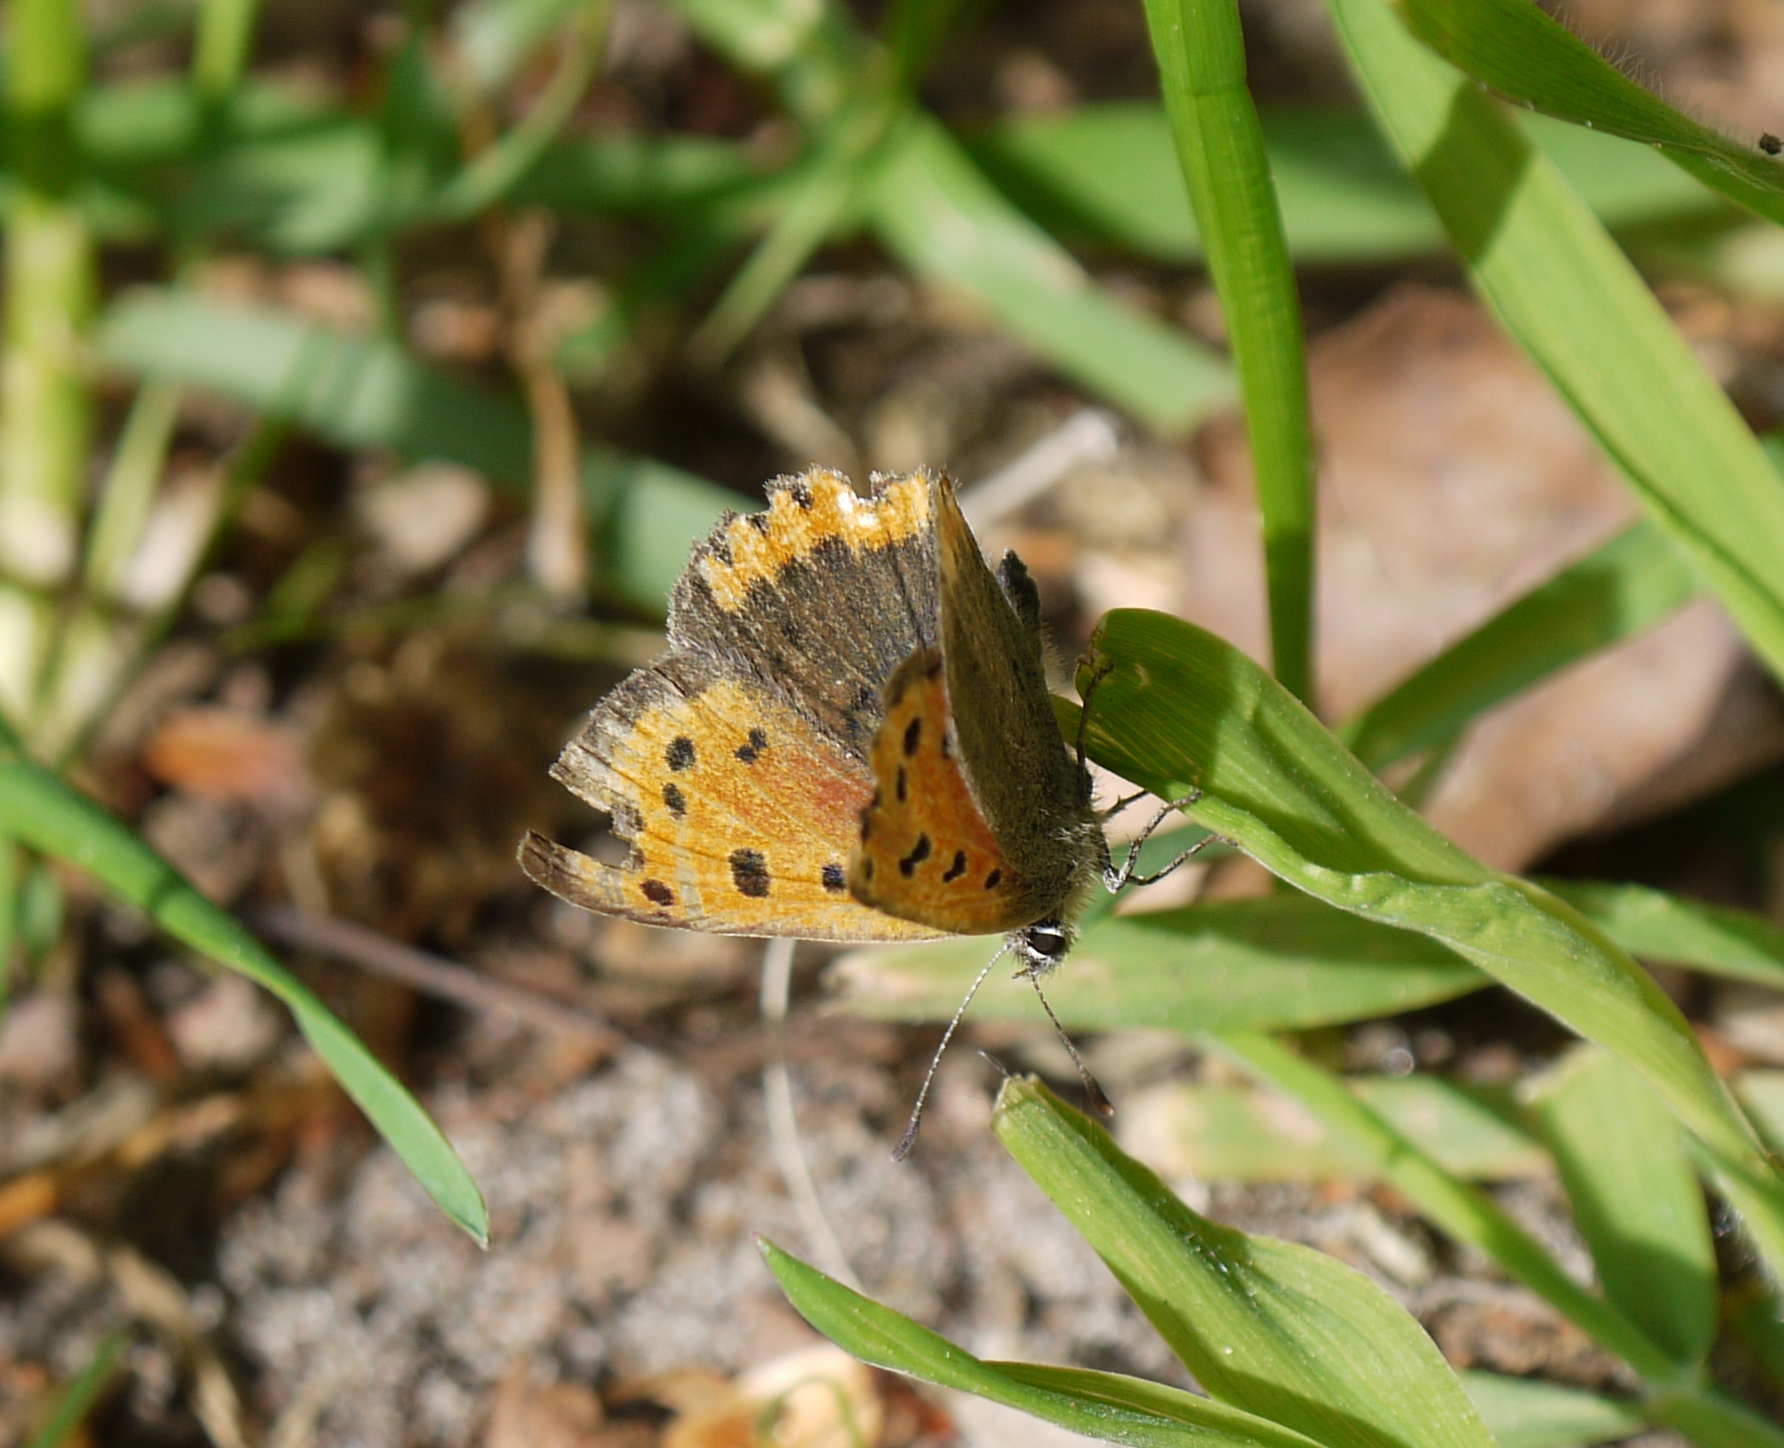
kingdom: Animalia
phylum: Arthropoda
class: Insecta
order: Lepidoptera
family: Lycaenidae
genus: Lycaena
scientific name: Lycaena phlaeas
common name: Small copper
